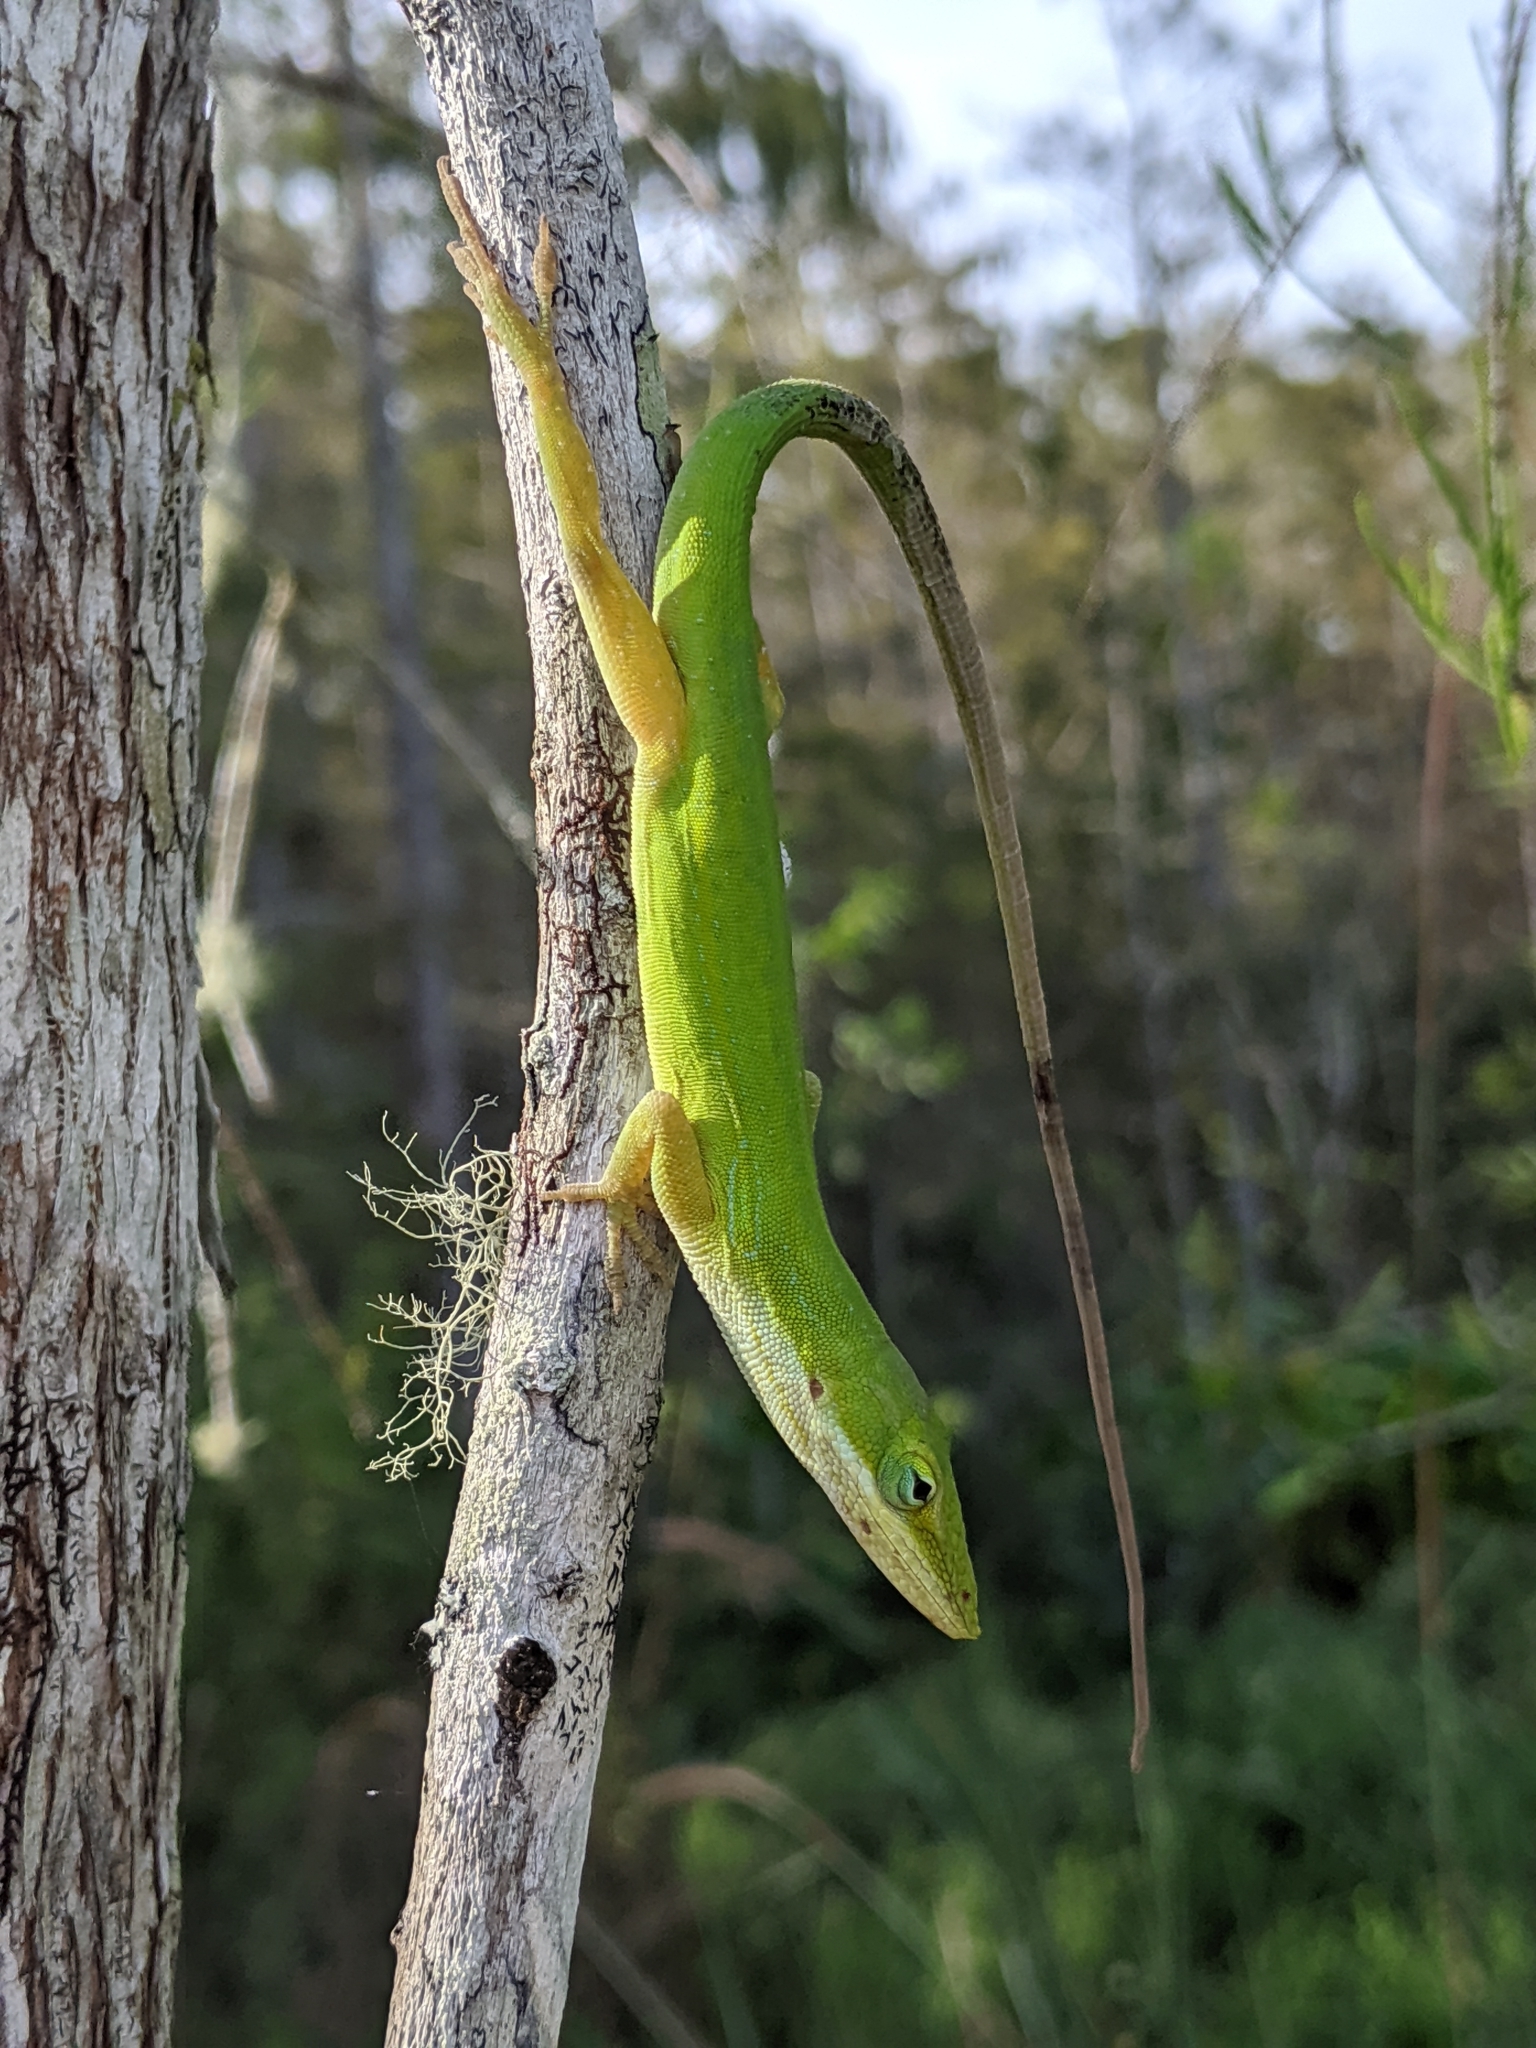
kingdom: Animalia
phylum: Chordata
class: Squamata
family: Dactyloidae
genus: Anolis
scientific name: Anolis carolinensis
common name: Green anole
